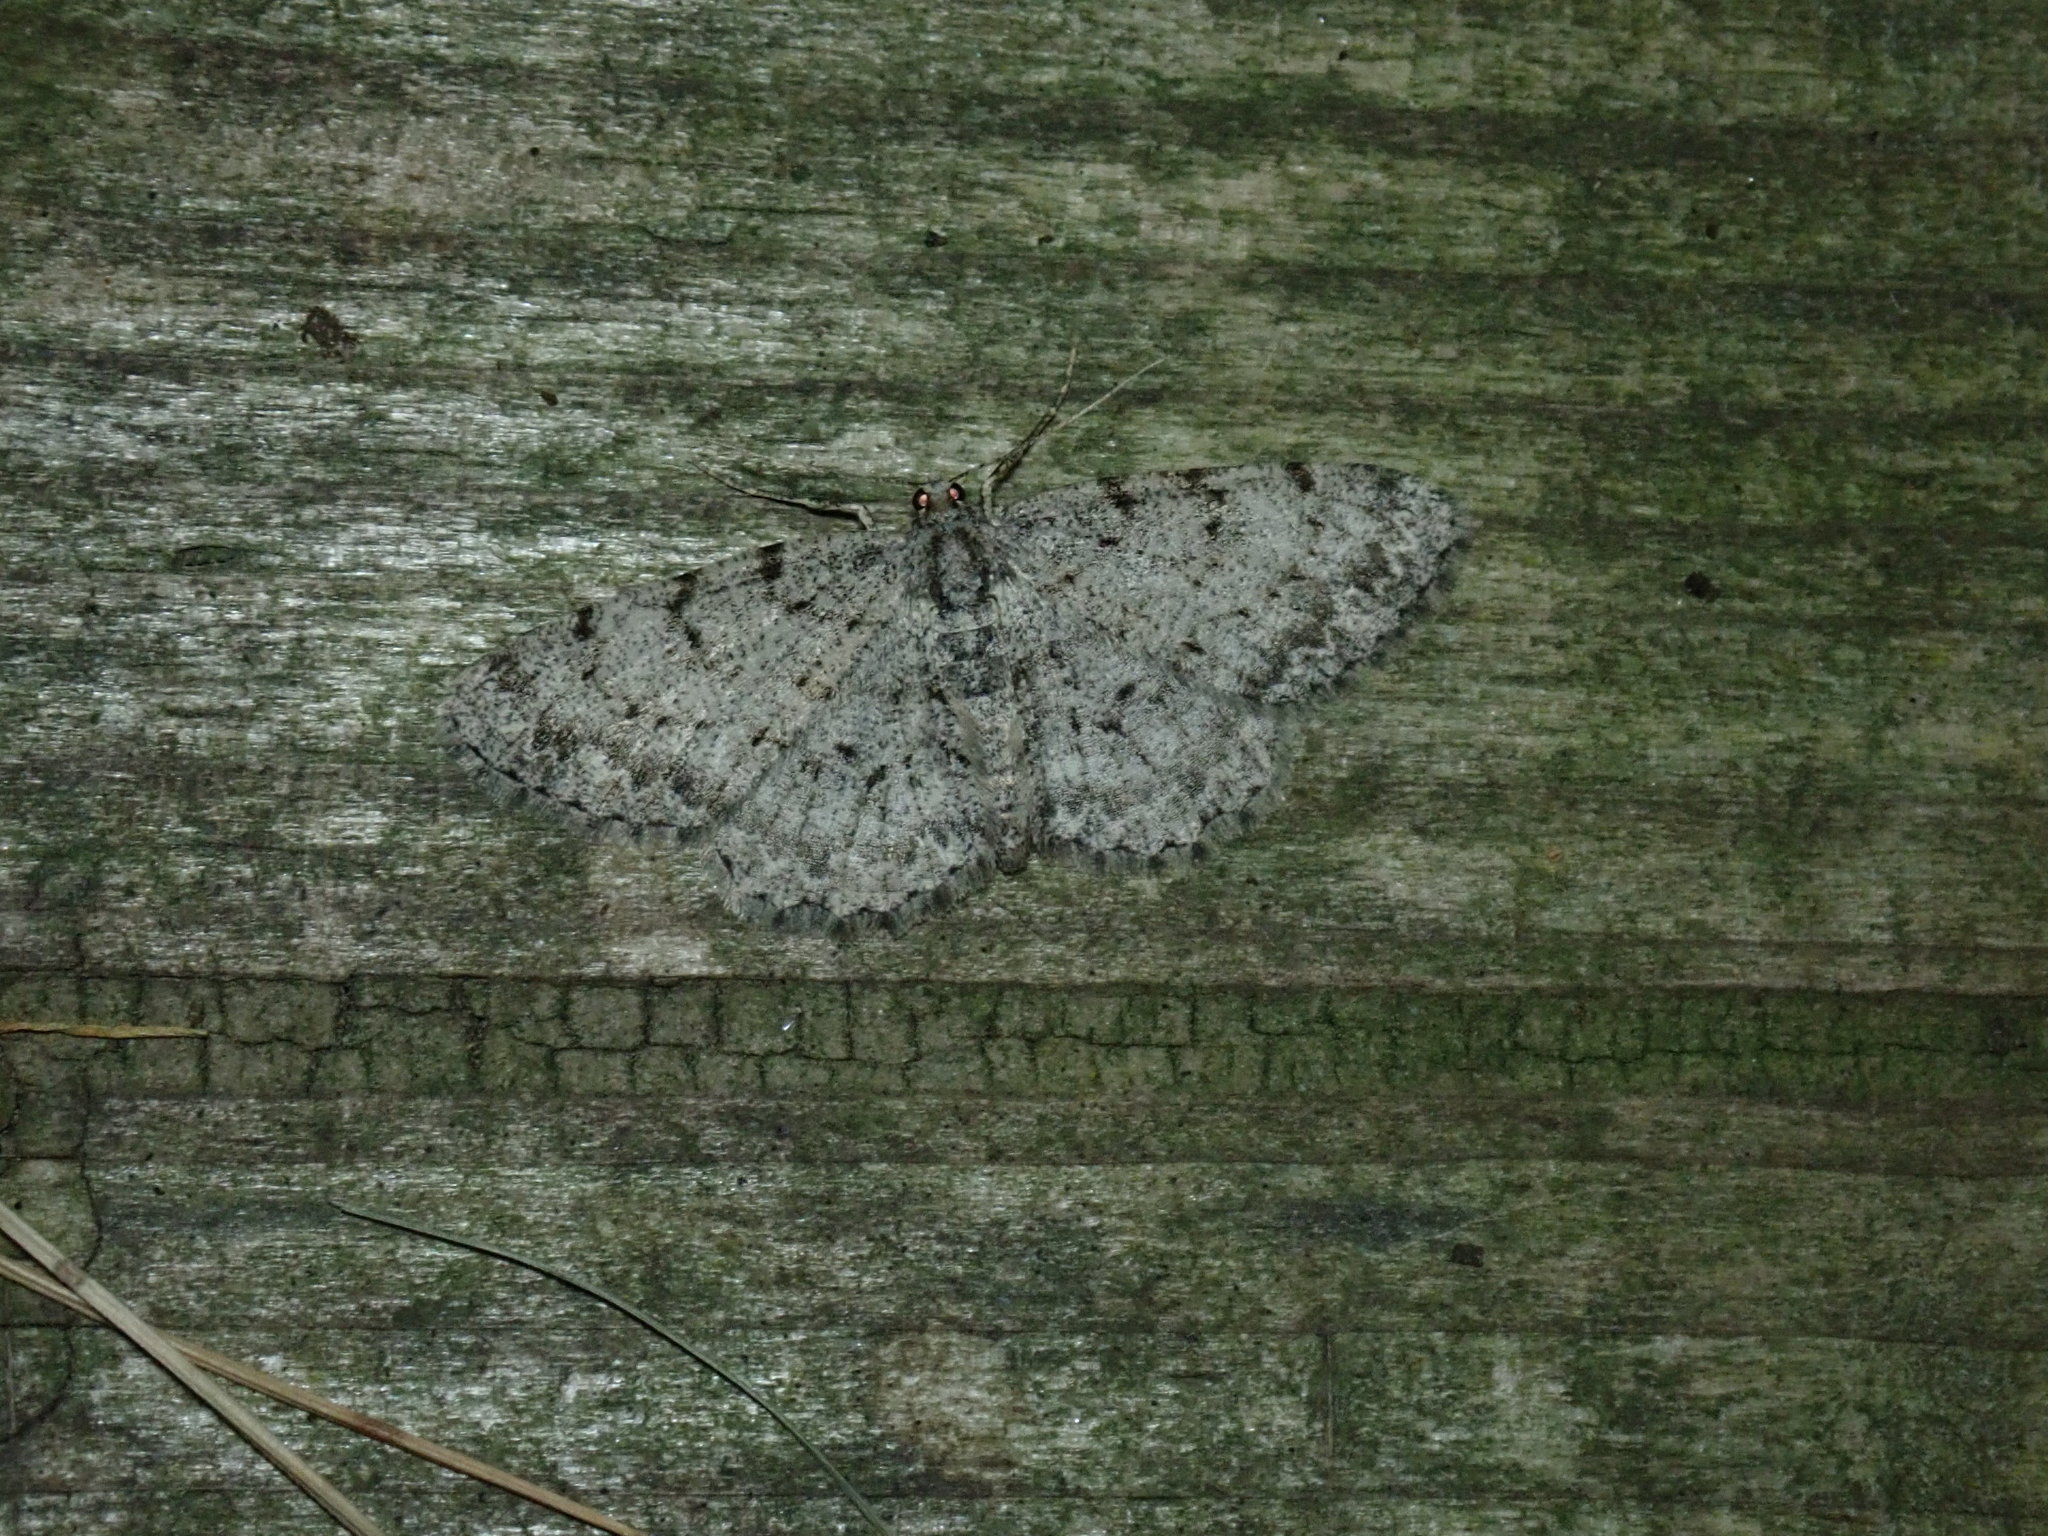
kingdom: Animalia
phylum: Arthropoda
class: Insecta
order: Lepidoptera
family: Geometridae
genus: Protoboarmia
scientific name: Protoboarmia porcelaria
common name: Porcelain gray
